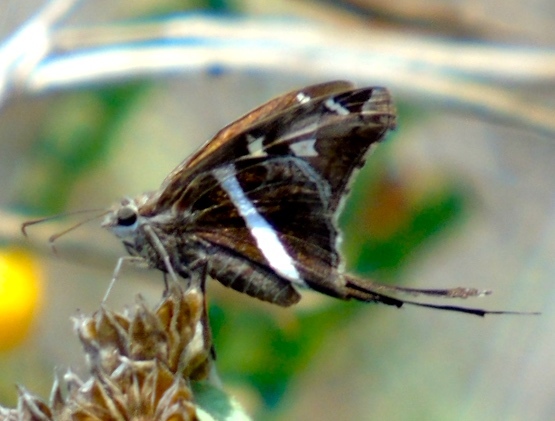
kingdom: Animalia
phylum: Arthropoda
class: Insecta
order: Lepidoptera
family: Hesperiidae
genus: Chioides
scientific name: Chioides catillus
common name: Silverbanded skipper
